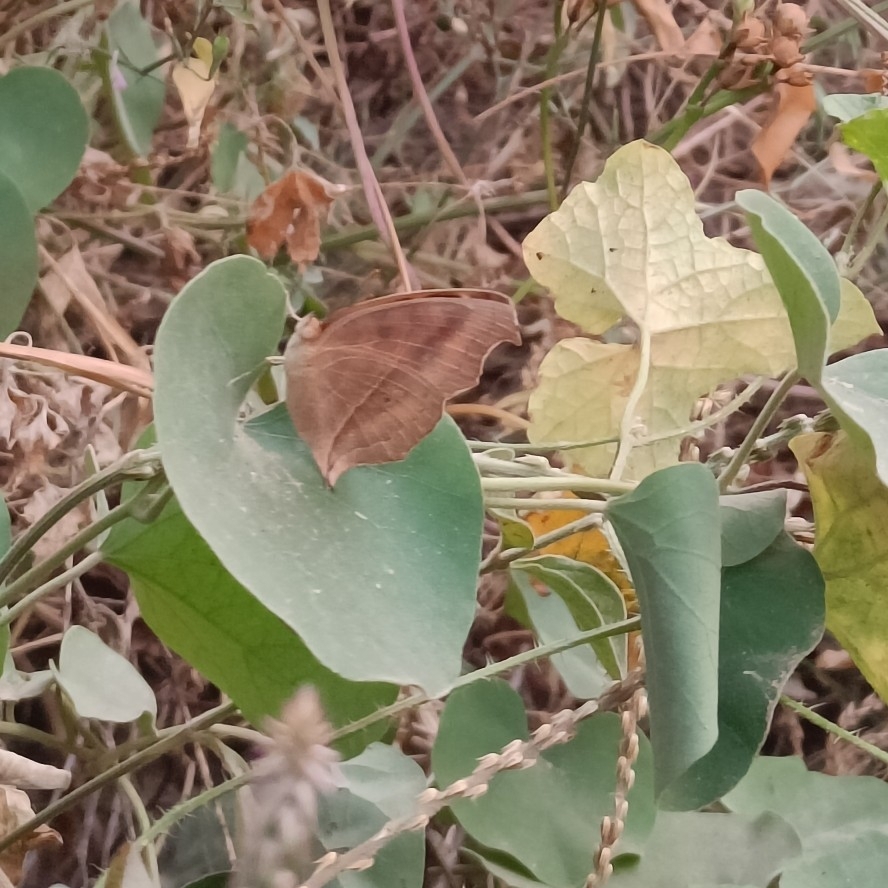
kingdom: Animalia
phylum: Arthropoda
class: Insecta
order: Lepidoptera
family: Nymphalidae
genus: Junonia
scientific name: Junonia almana
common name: Peacock pansy
